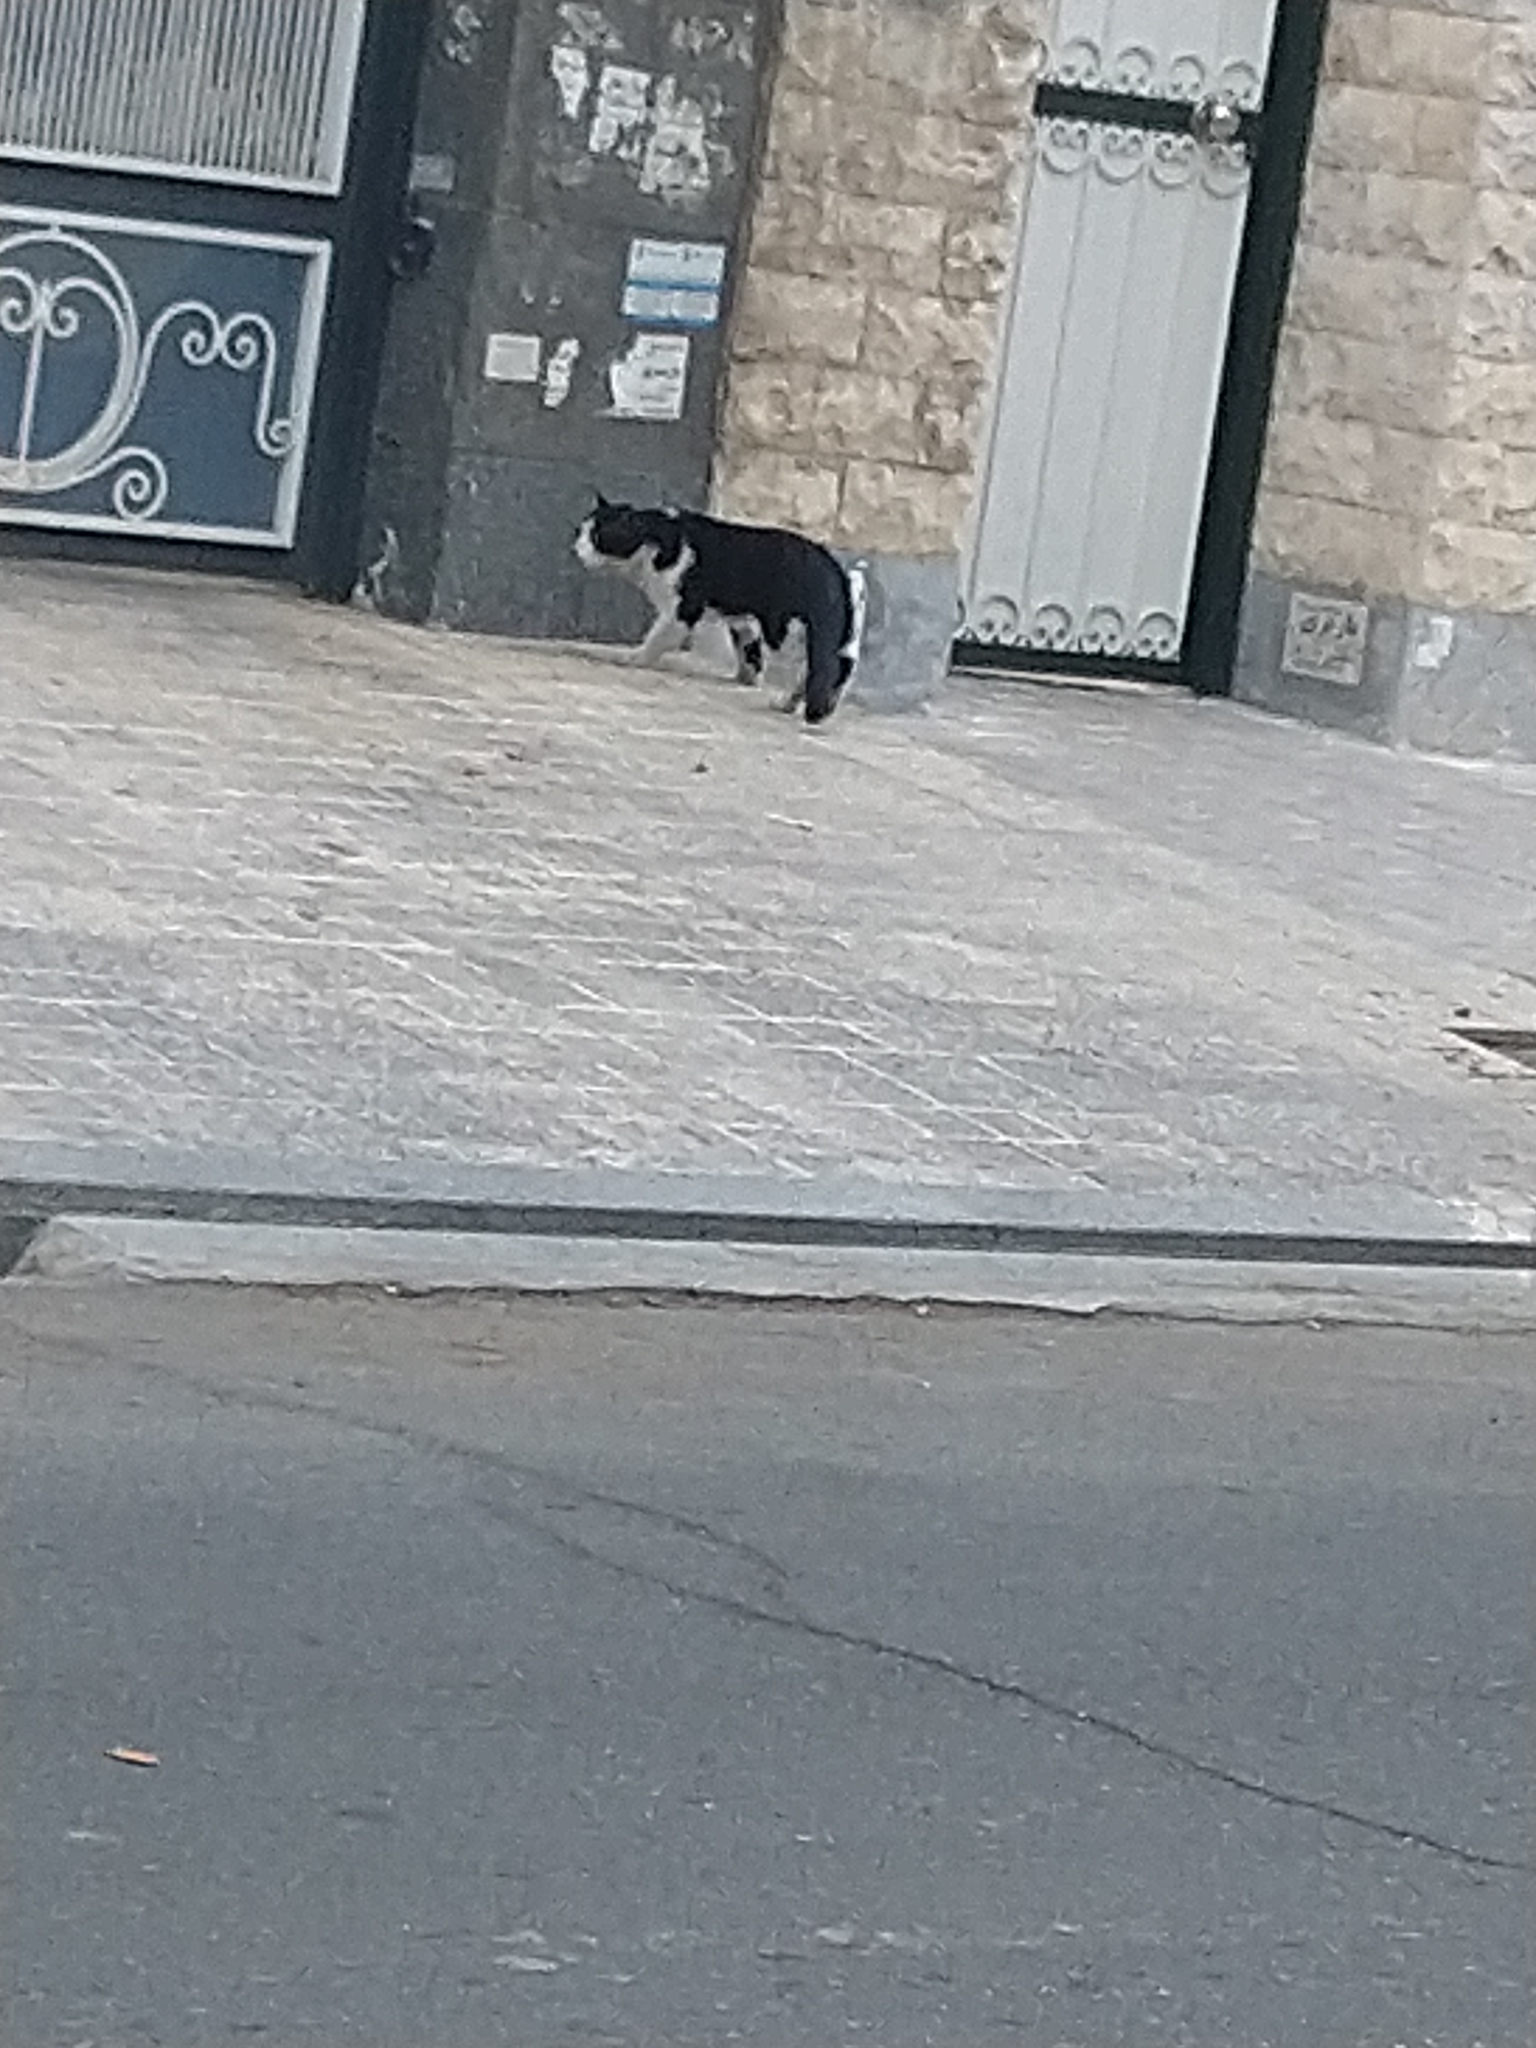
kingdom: Animalia
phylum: Chordata
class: Mammalia
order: Carnivora
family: Felidae
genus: Felis
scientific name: Felis catus
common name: Domestic cat
